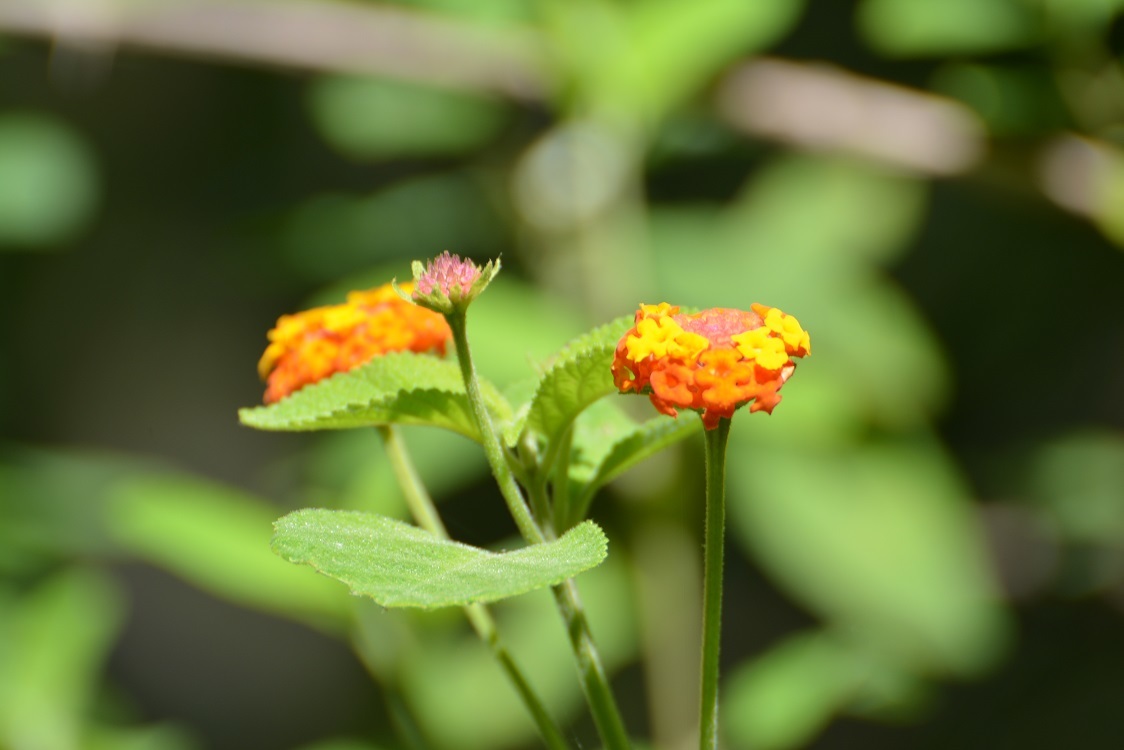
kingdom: Plantae
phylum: Tracheophyta
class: Magnoliopsida
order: Lamiales
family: Verbenaceae
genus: Lantana
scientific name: Lantana camara
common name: Lantana
